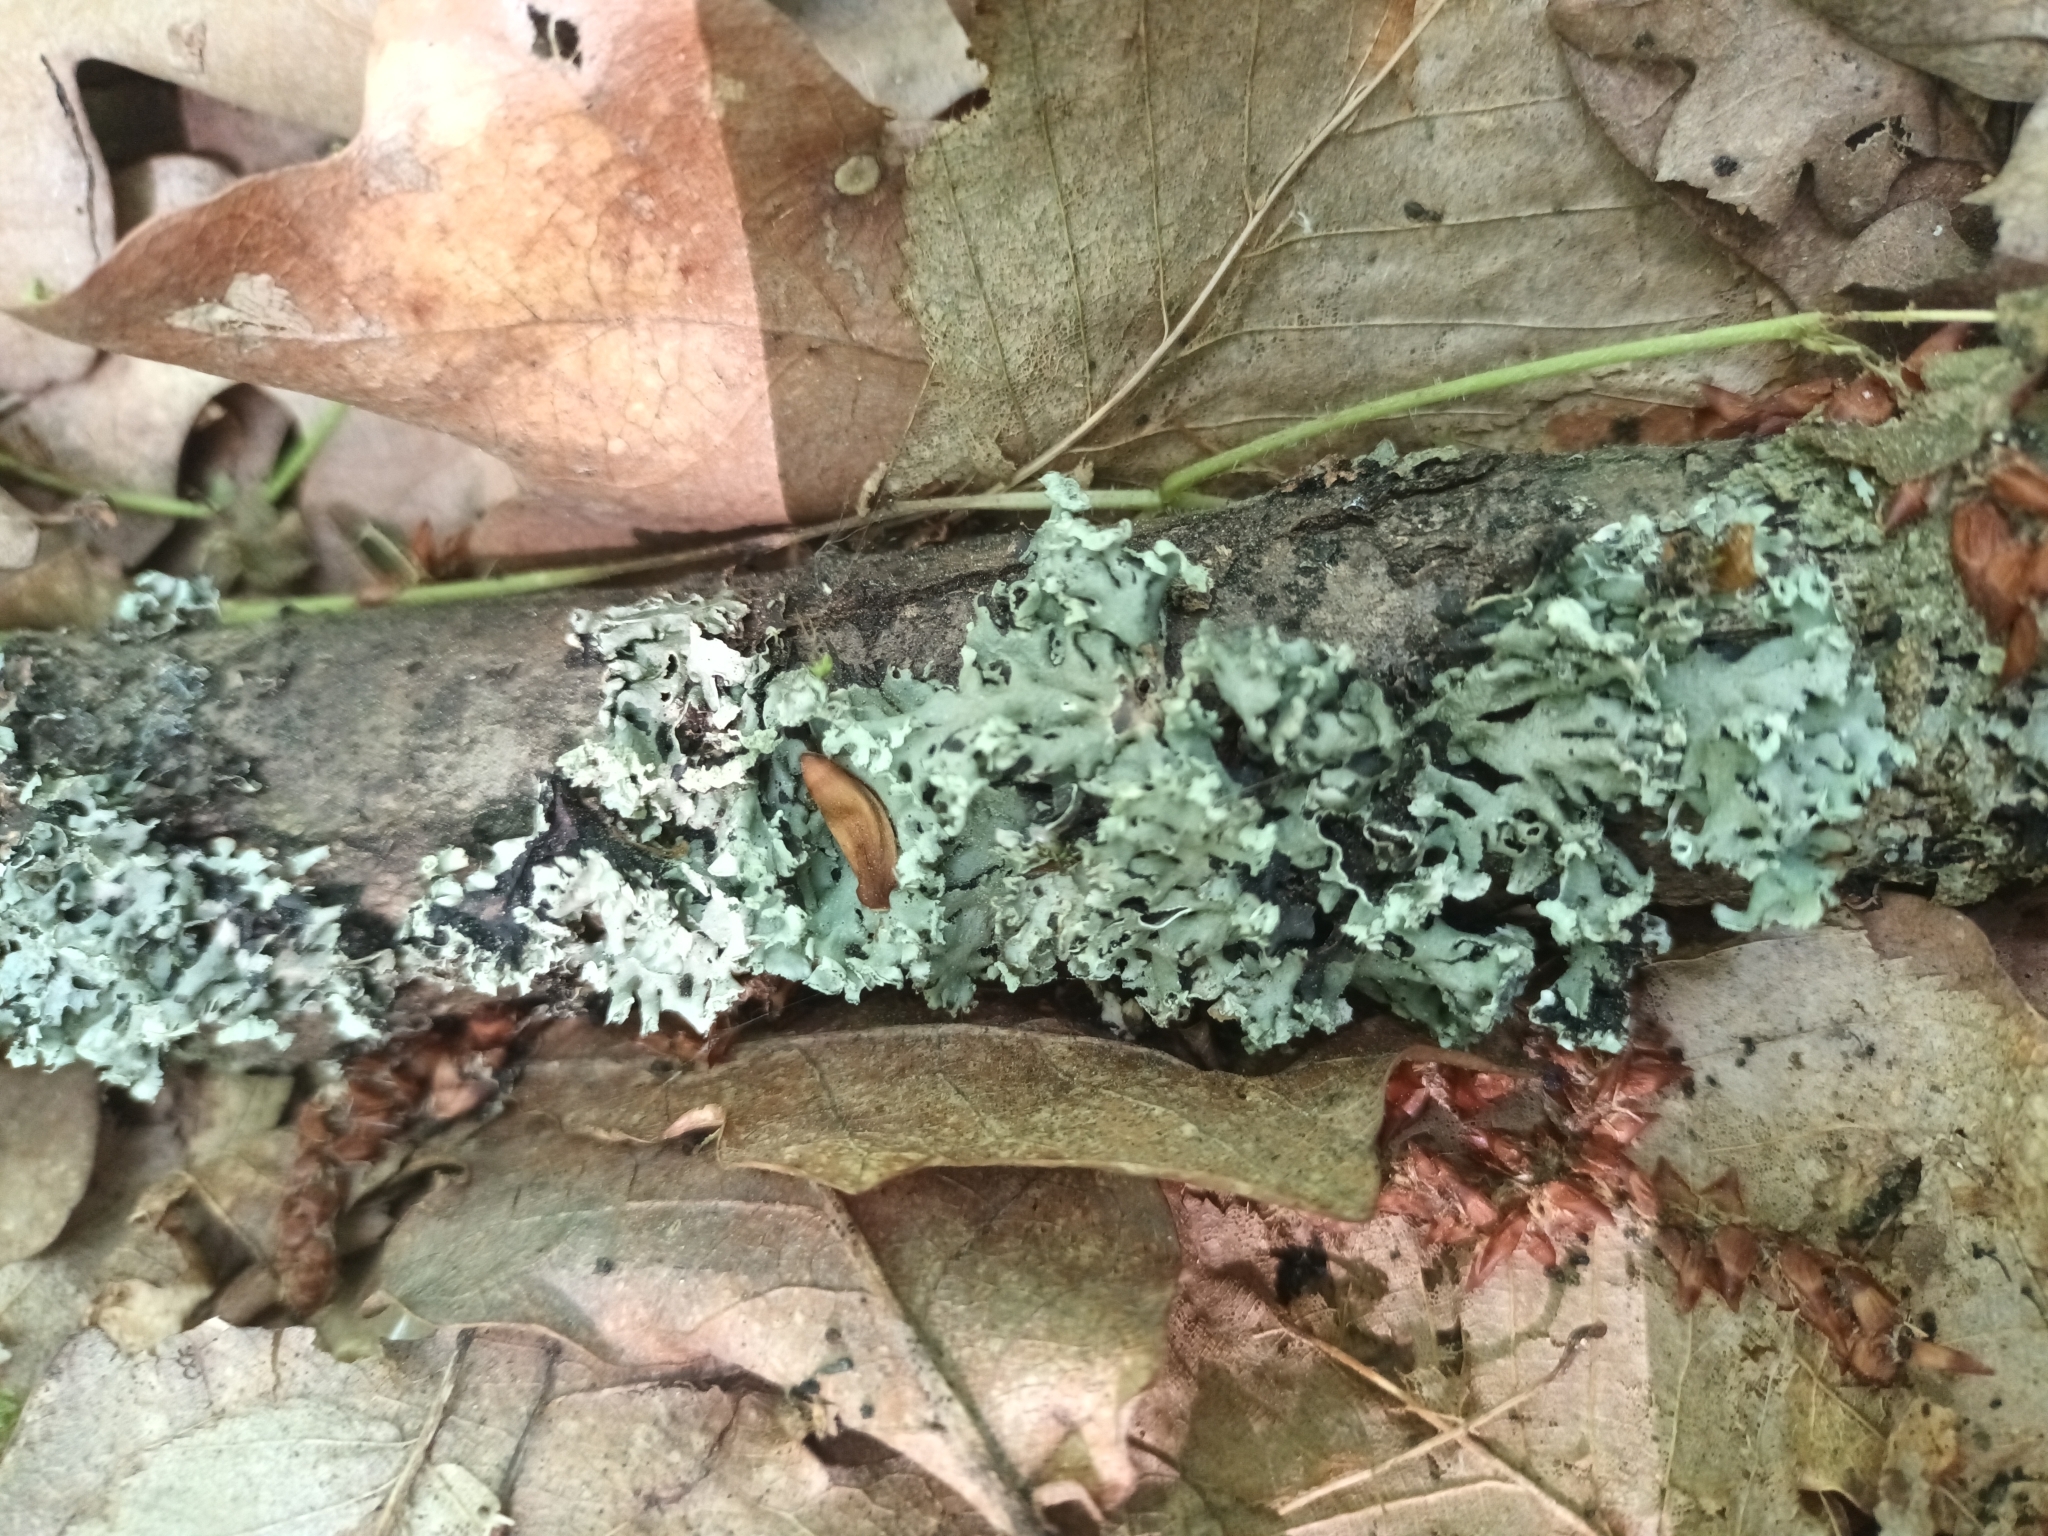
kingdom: Fungi
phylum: Ascomycota
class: Lecanoromycetes
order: Lecanorales
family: Parmeliaceae
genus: Hypogymnia
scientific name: Hypogymnia physodes
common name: Dark crottle
